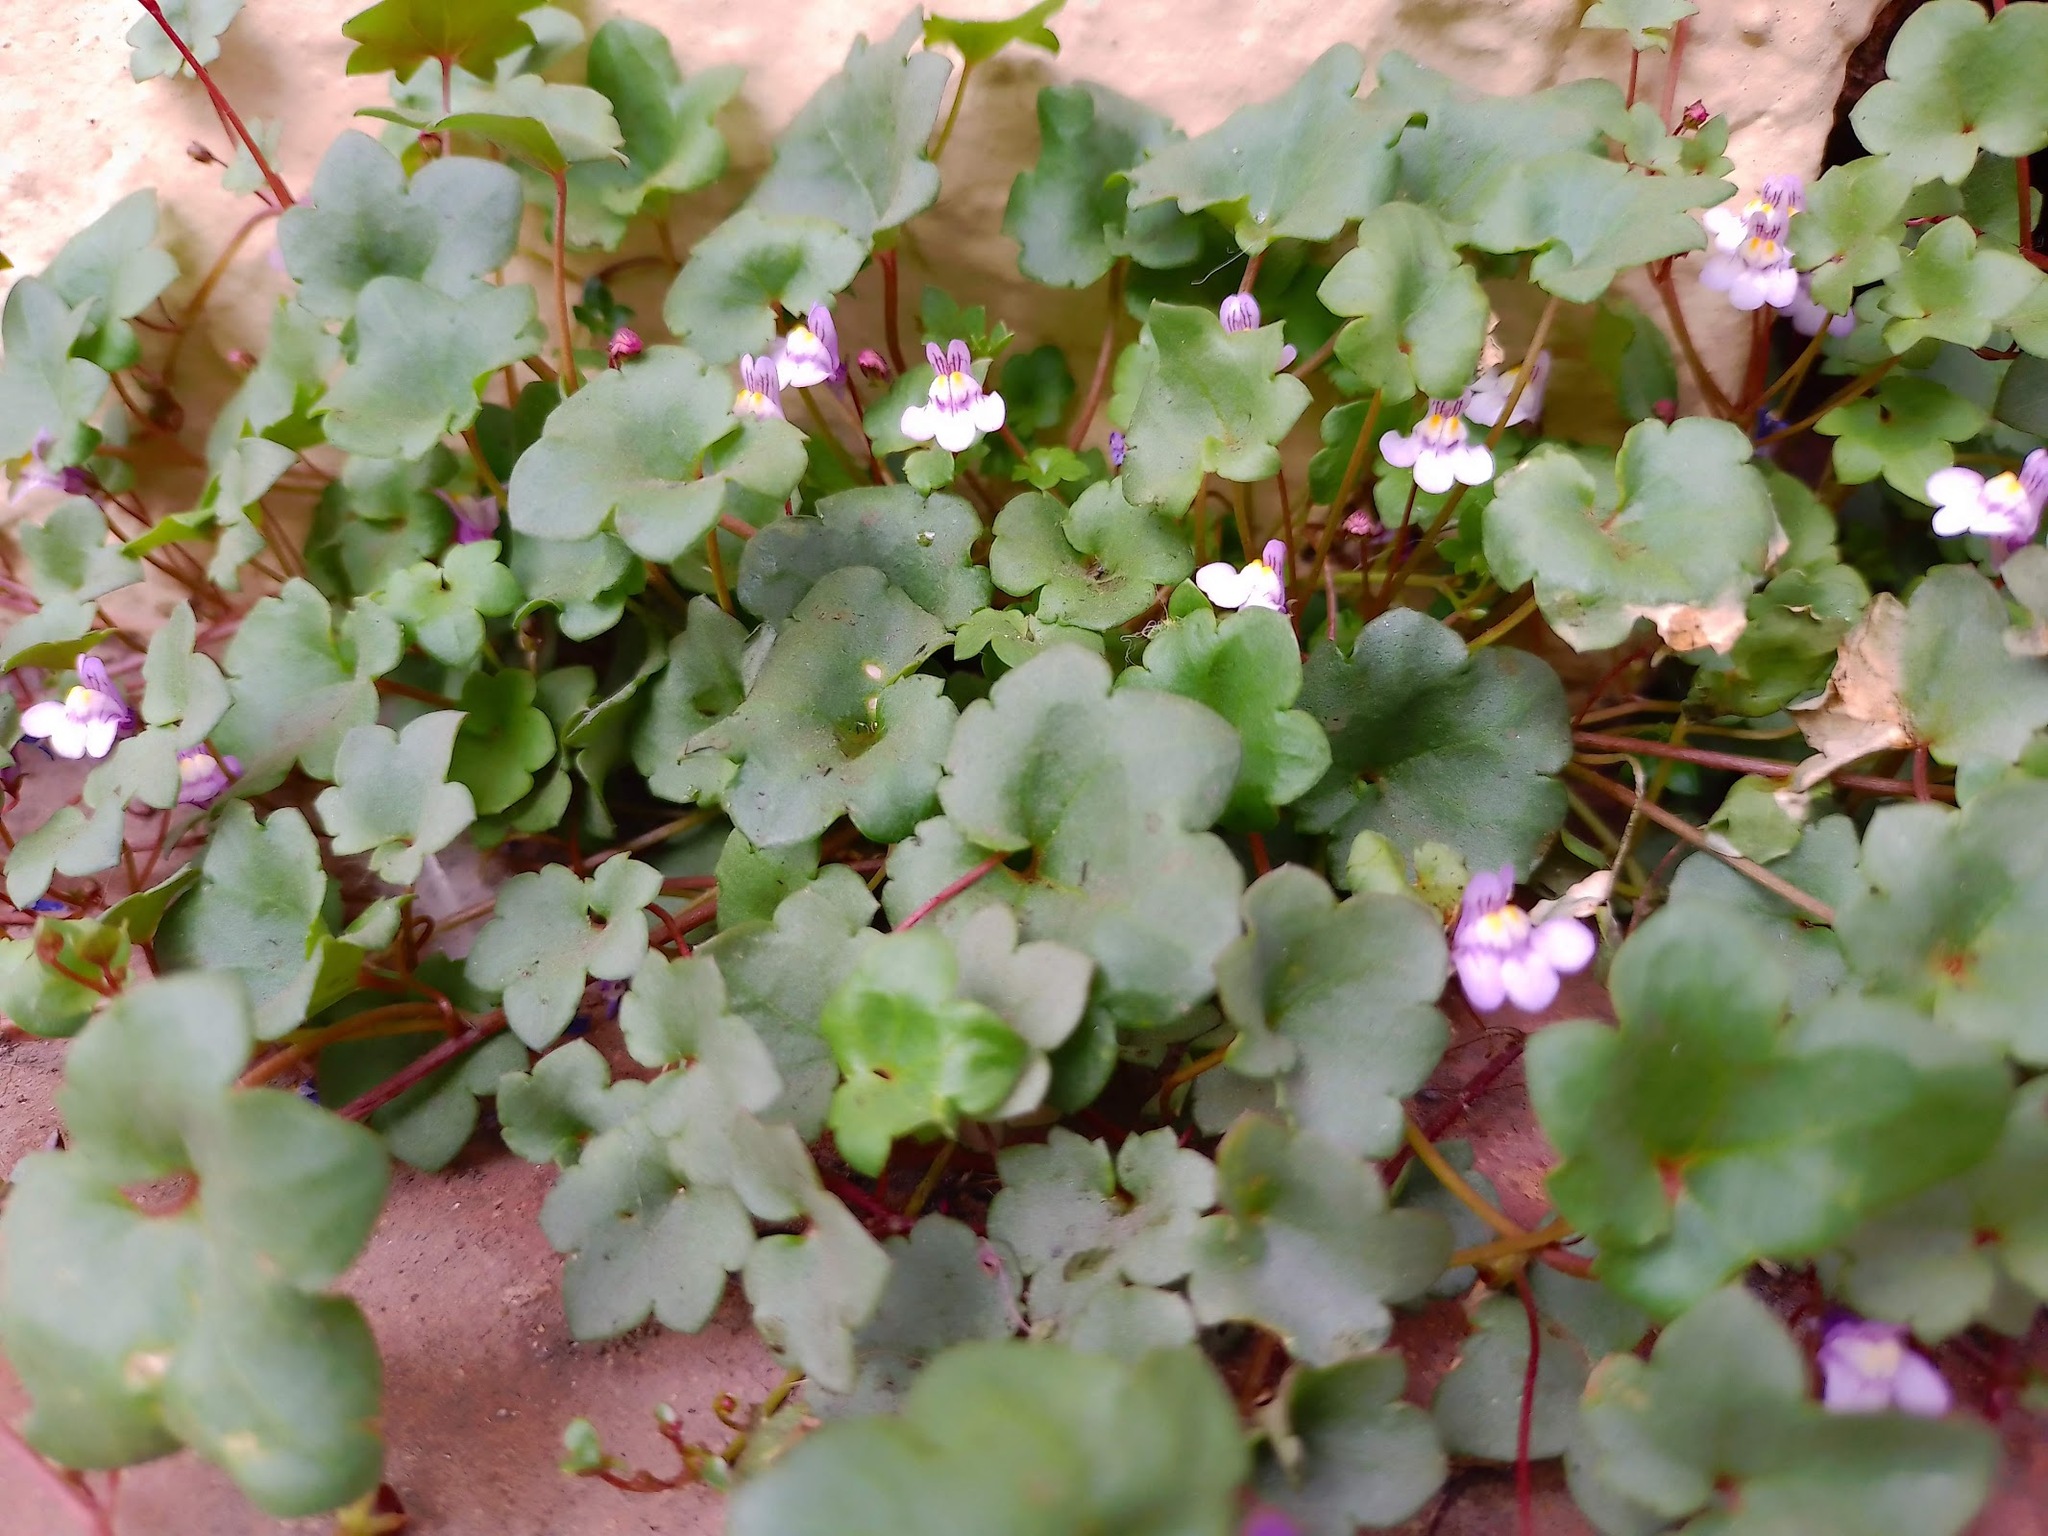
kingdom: Plantae
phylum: Tracheophyta
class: Magnoliopsida
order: Lamiales
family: Plantaginaceae
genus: Cymbalaria
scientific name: Cymbalaria muralis
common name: Ivy-leaved toadflax
